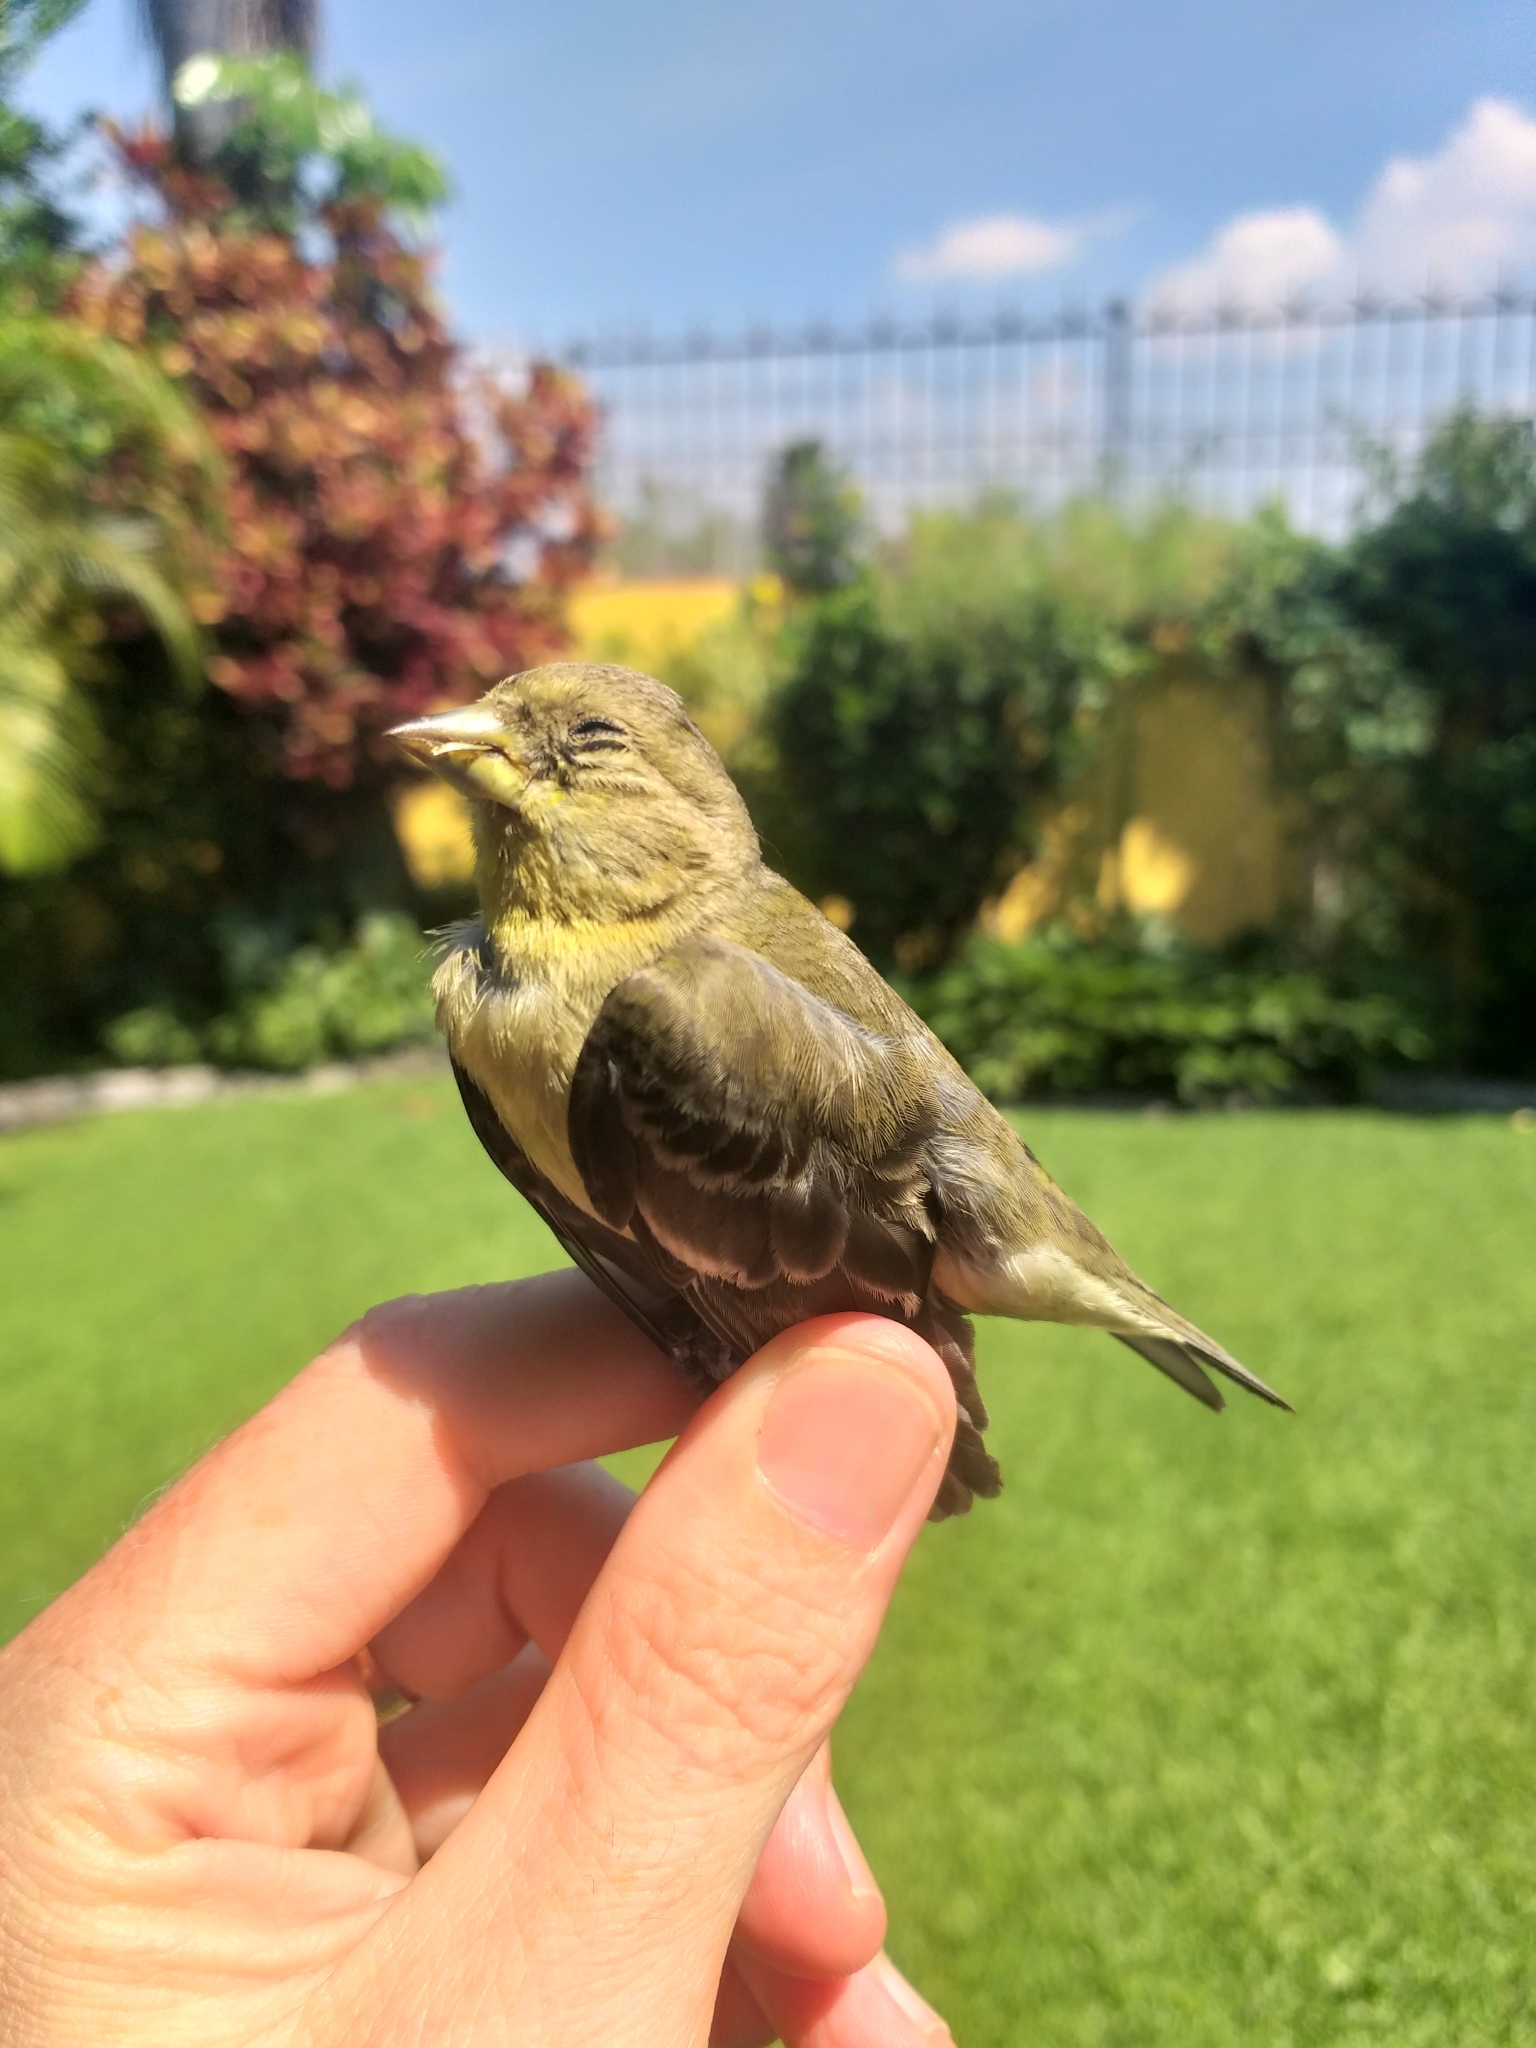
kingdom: Animalia
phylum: Chordata
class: Aves
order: Passeriformes
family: Fringillidae
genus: Spinus
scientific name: Spinus psaltria
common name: Lesser goldfinch
